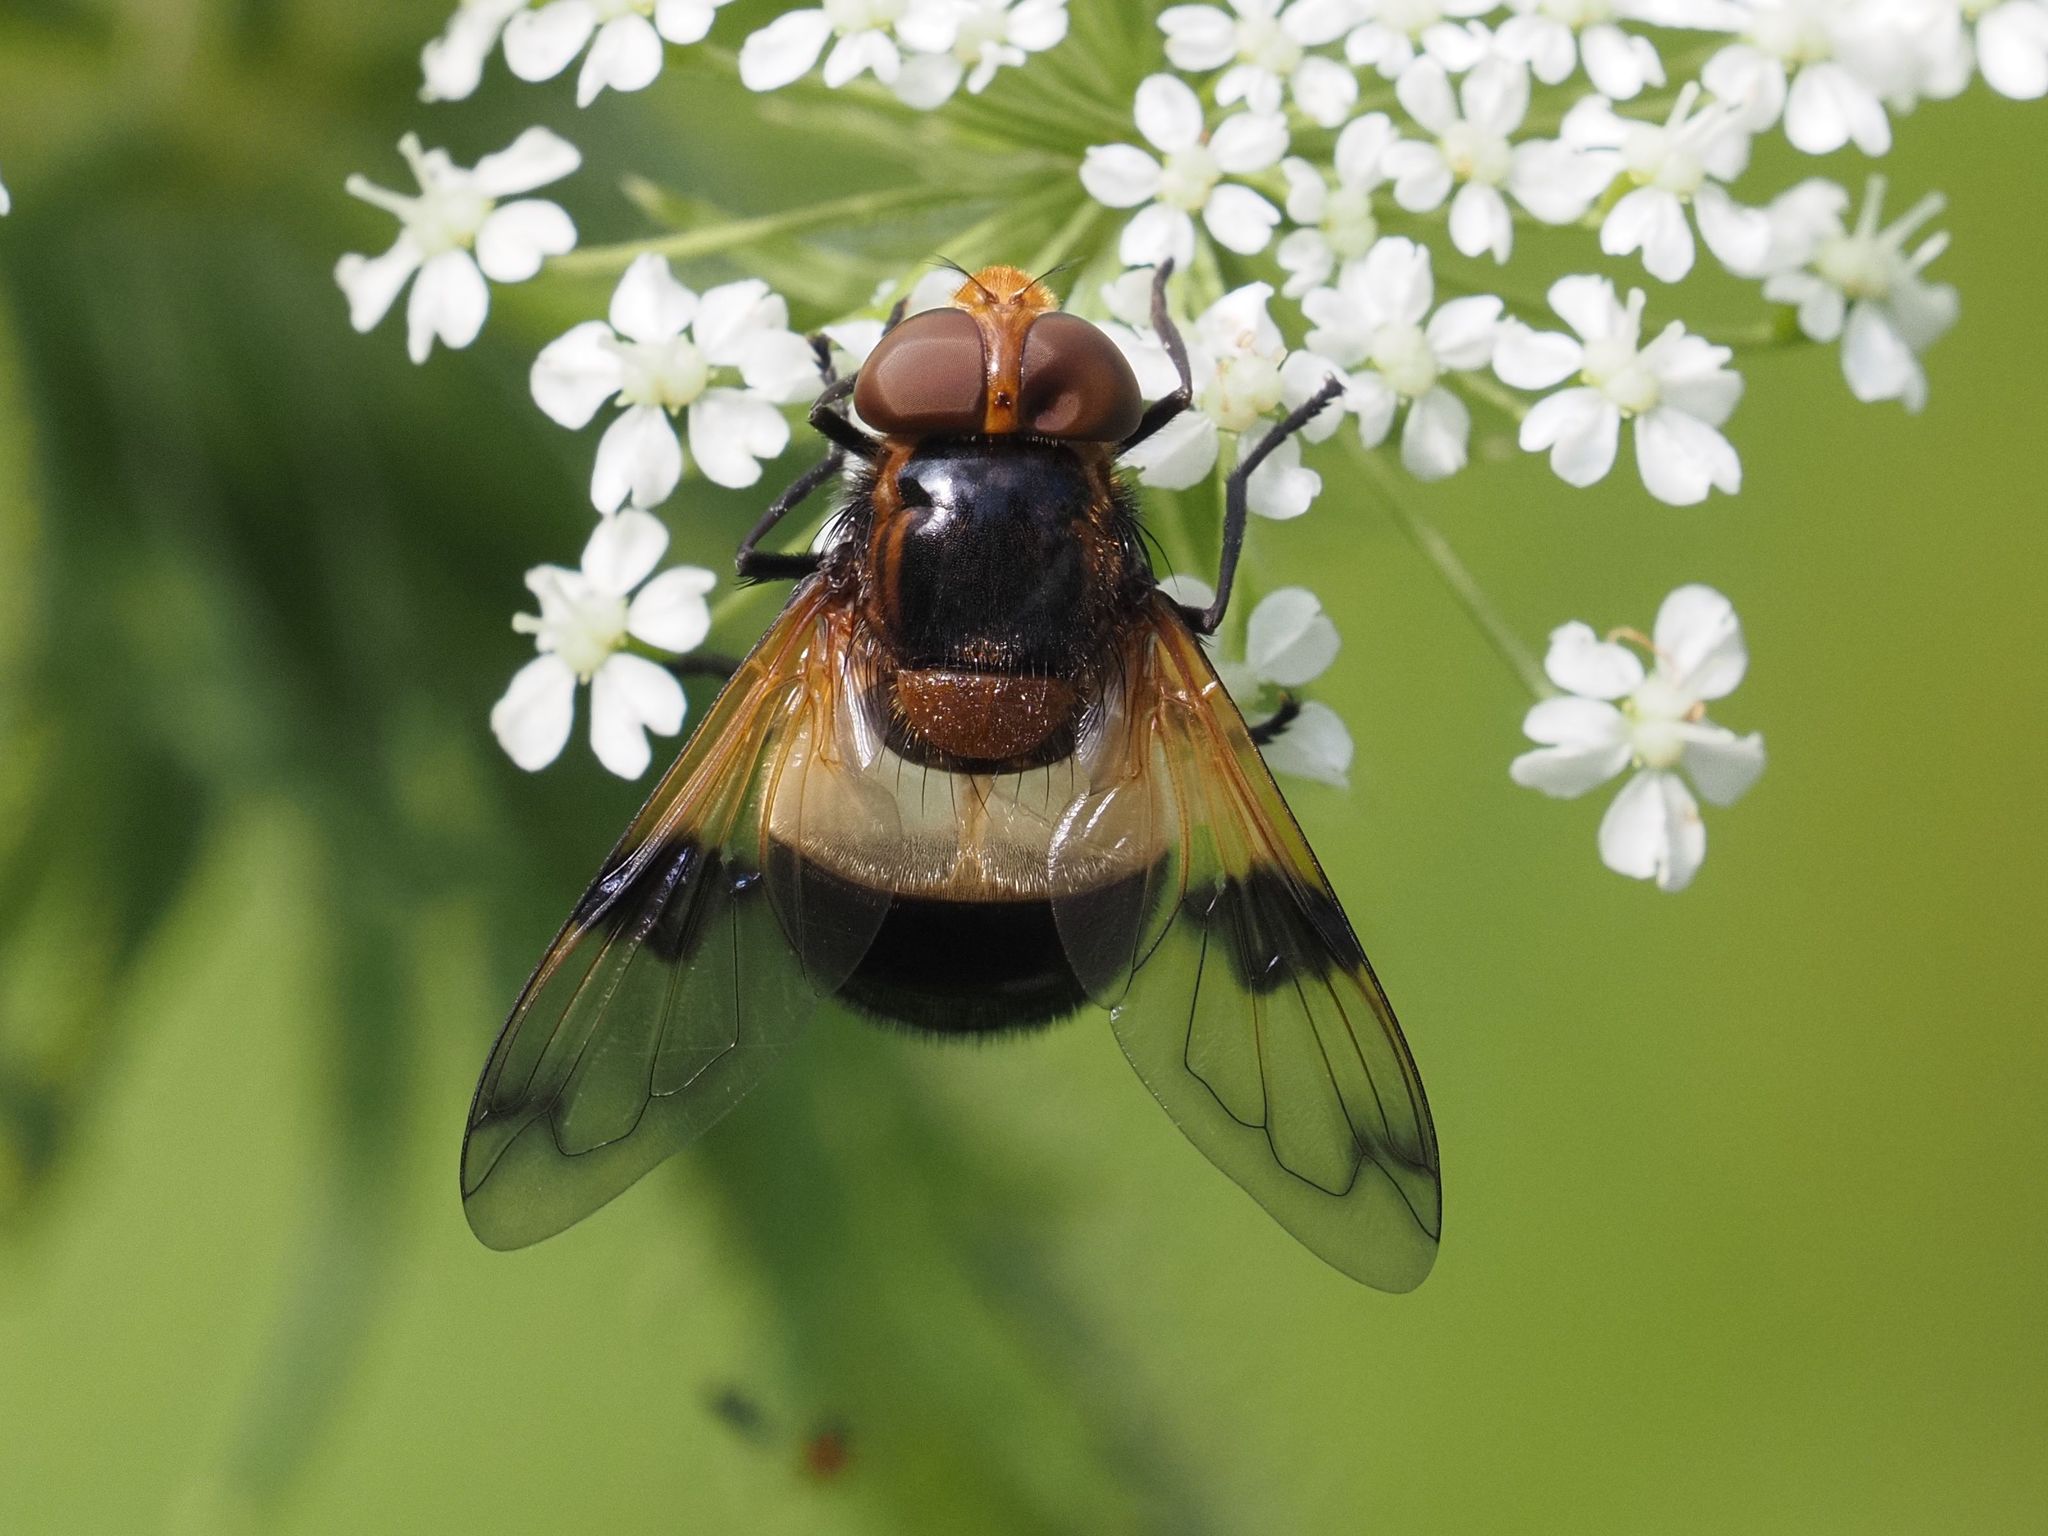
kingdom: Animalia
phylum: Arthropoda
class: Insecta
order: Diptera
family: Syrphidae
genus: Volucella
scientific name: Volucella pellucens
